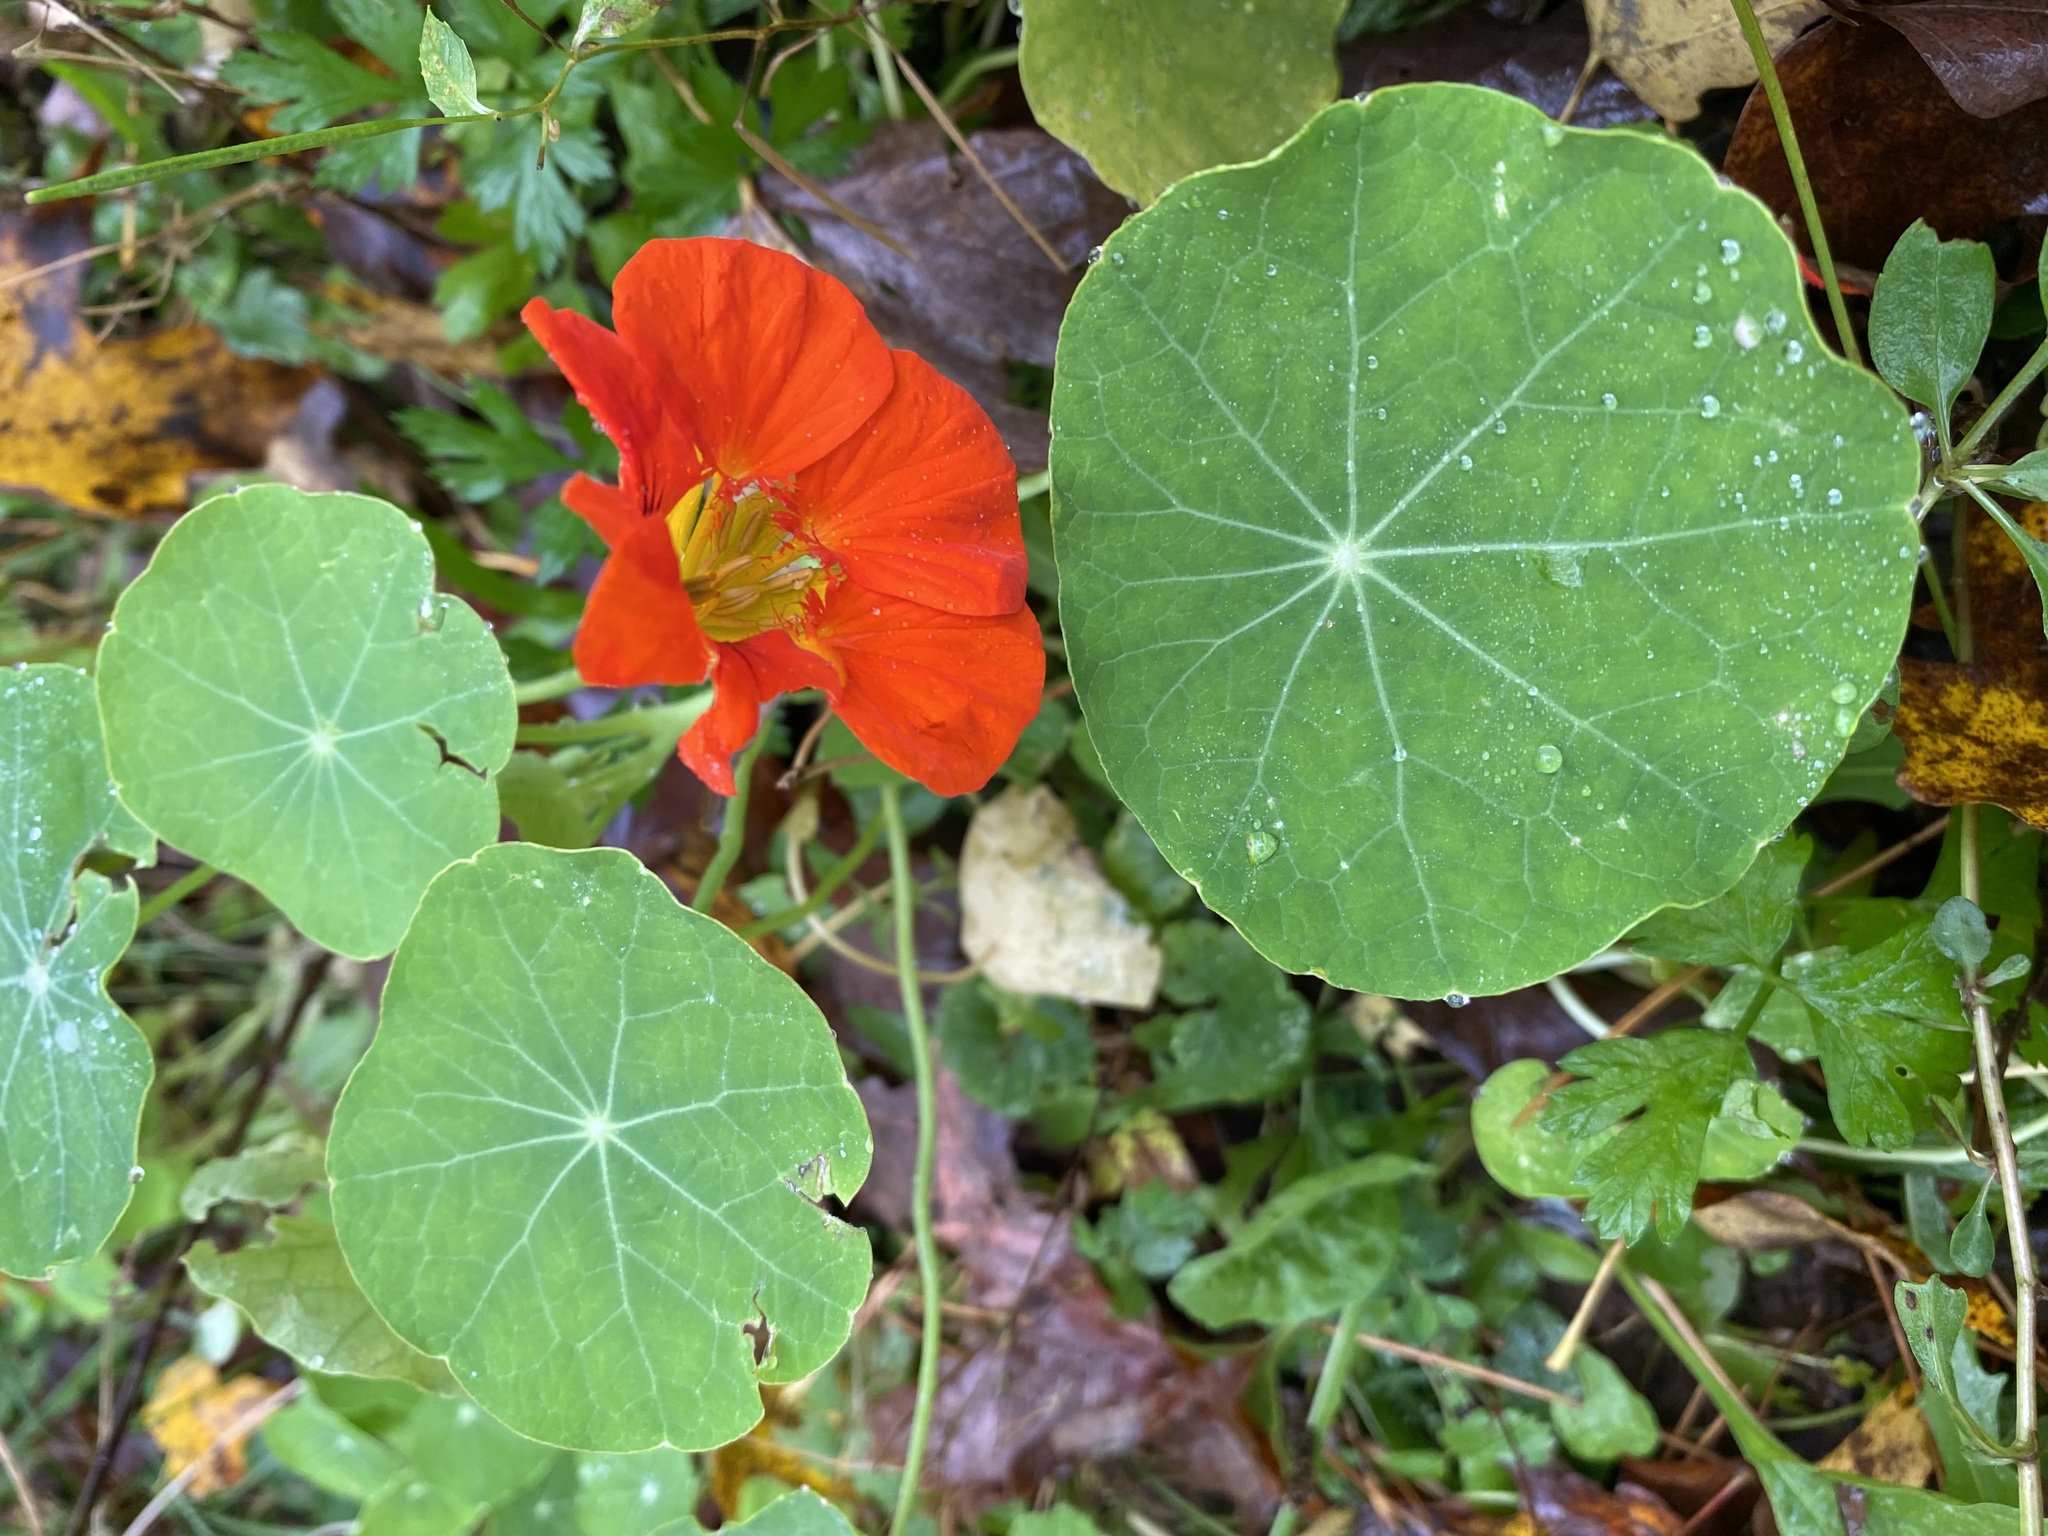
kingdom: Plantae
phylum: Tracheophyta
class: Magnoliopsida
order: Brassicales
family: Tropaeolaceae
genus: Tropaeolum
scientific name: Tropaeolum majus
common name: Nasturtium
